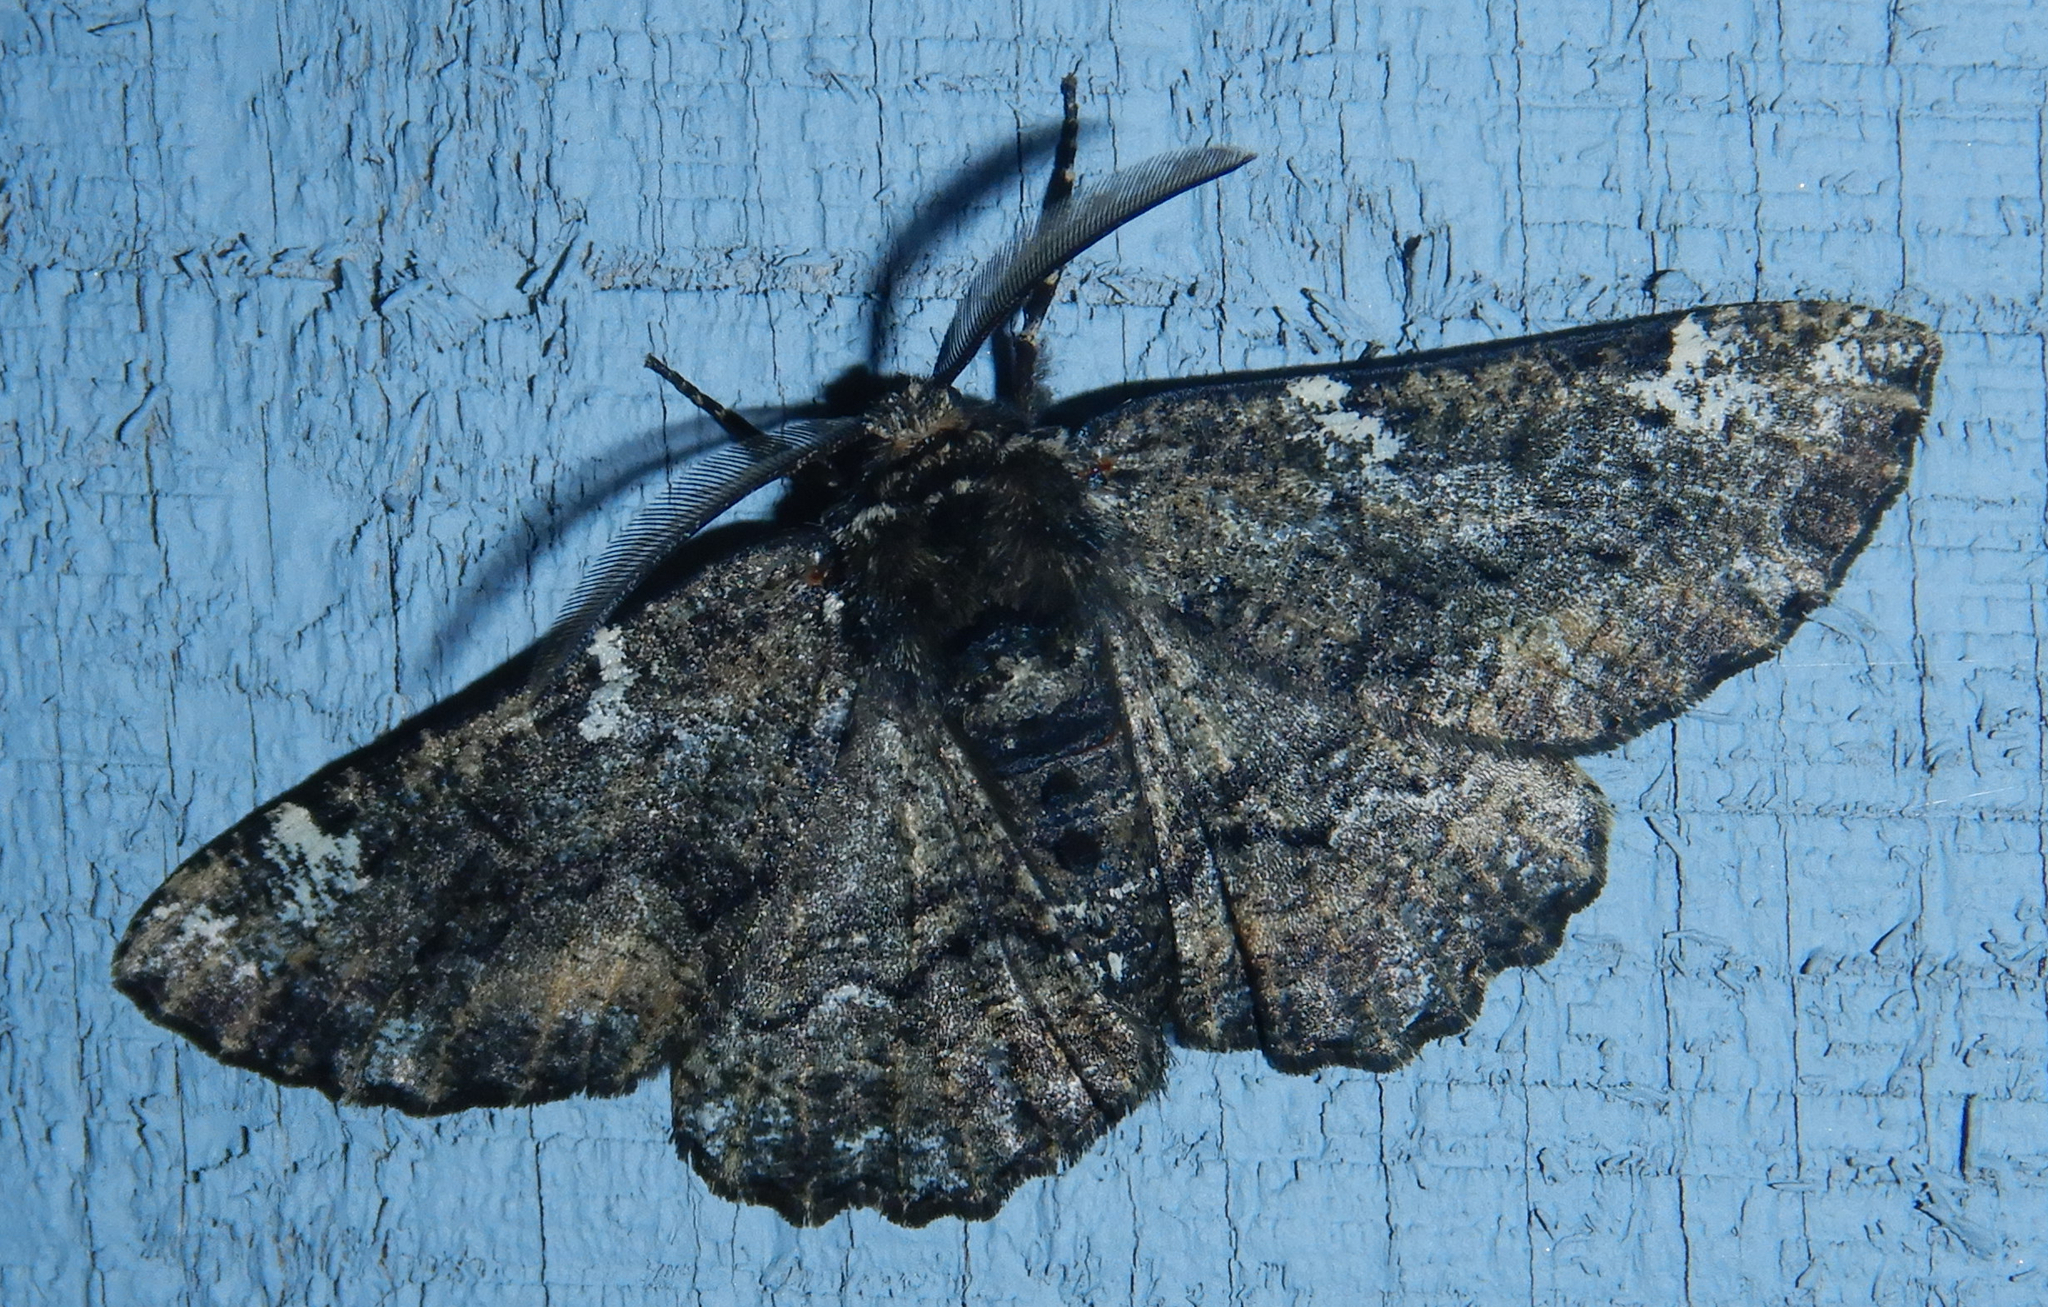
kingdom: Animalia
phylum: Arthropoda
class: Insecta
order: Lepidoptera
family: Geometridae
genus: Phaeoura
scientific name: Phaeoura quernaria
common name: Oak beauty
